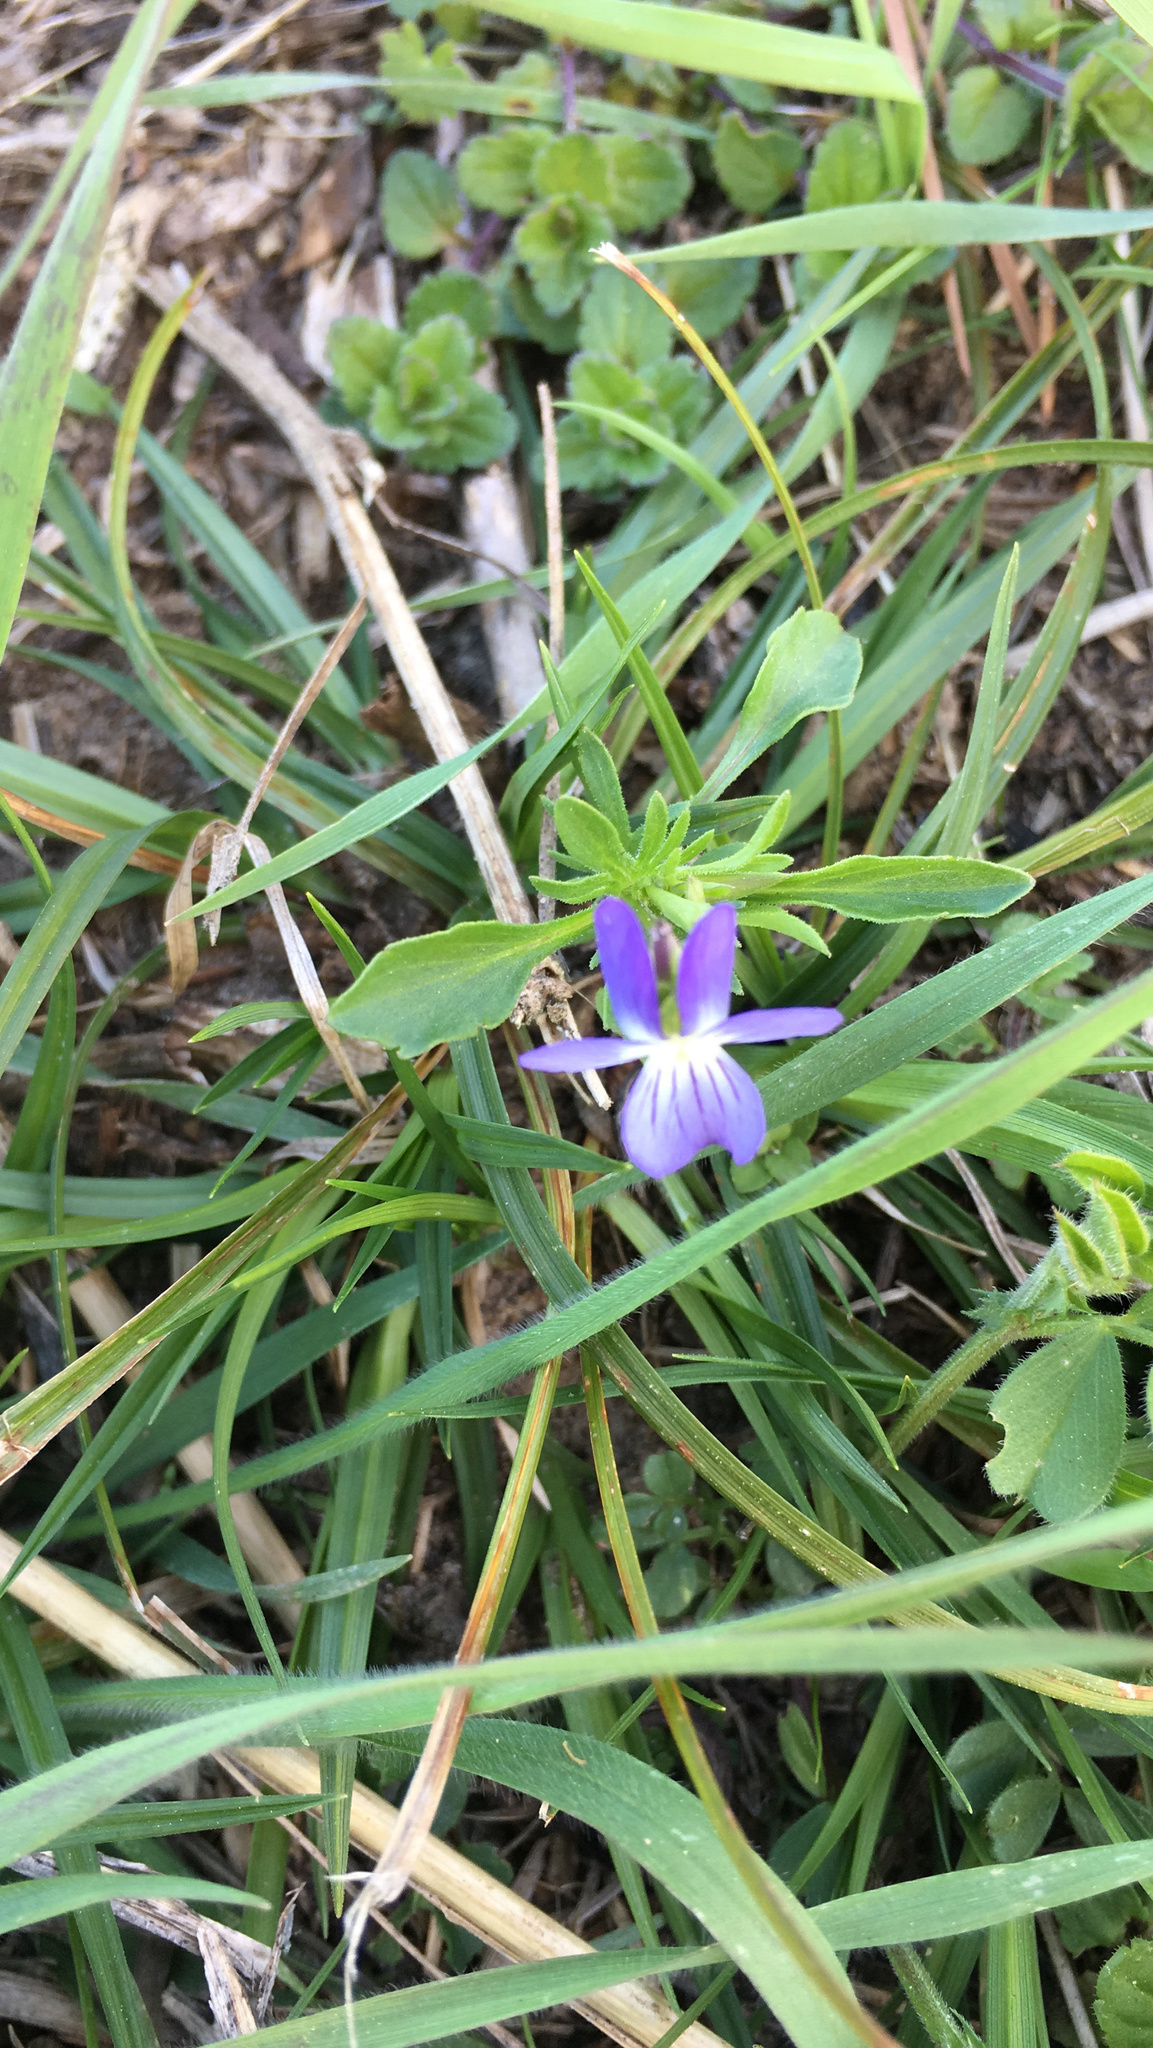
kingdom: Plantae
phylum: Tracheophyta
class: Magnoliopsida
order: Malpighiales
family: Violaceae
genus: Viola
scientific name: Viola rafinesquei
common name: American field pansy
